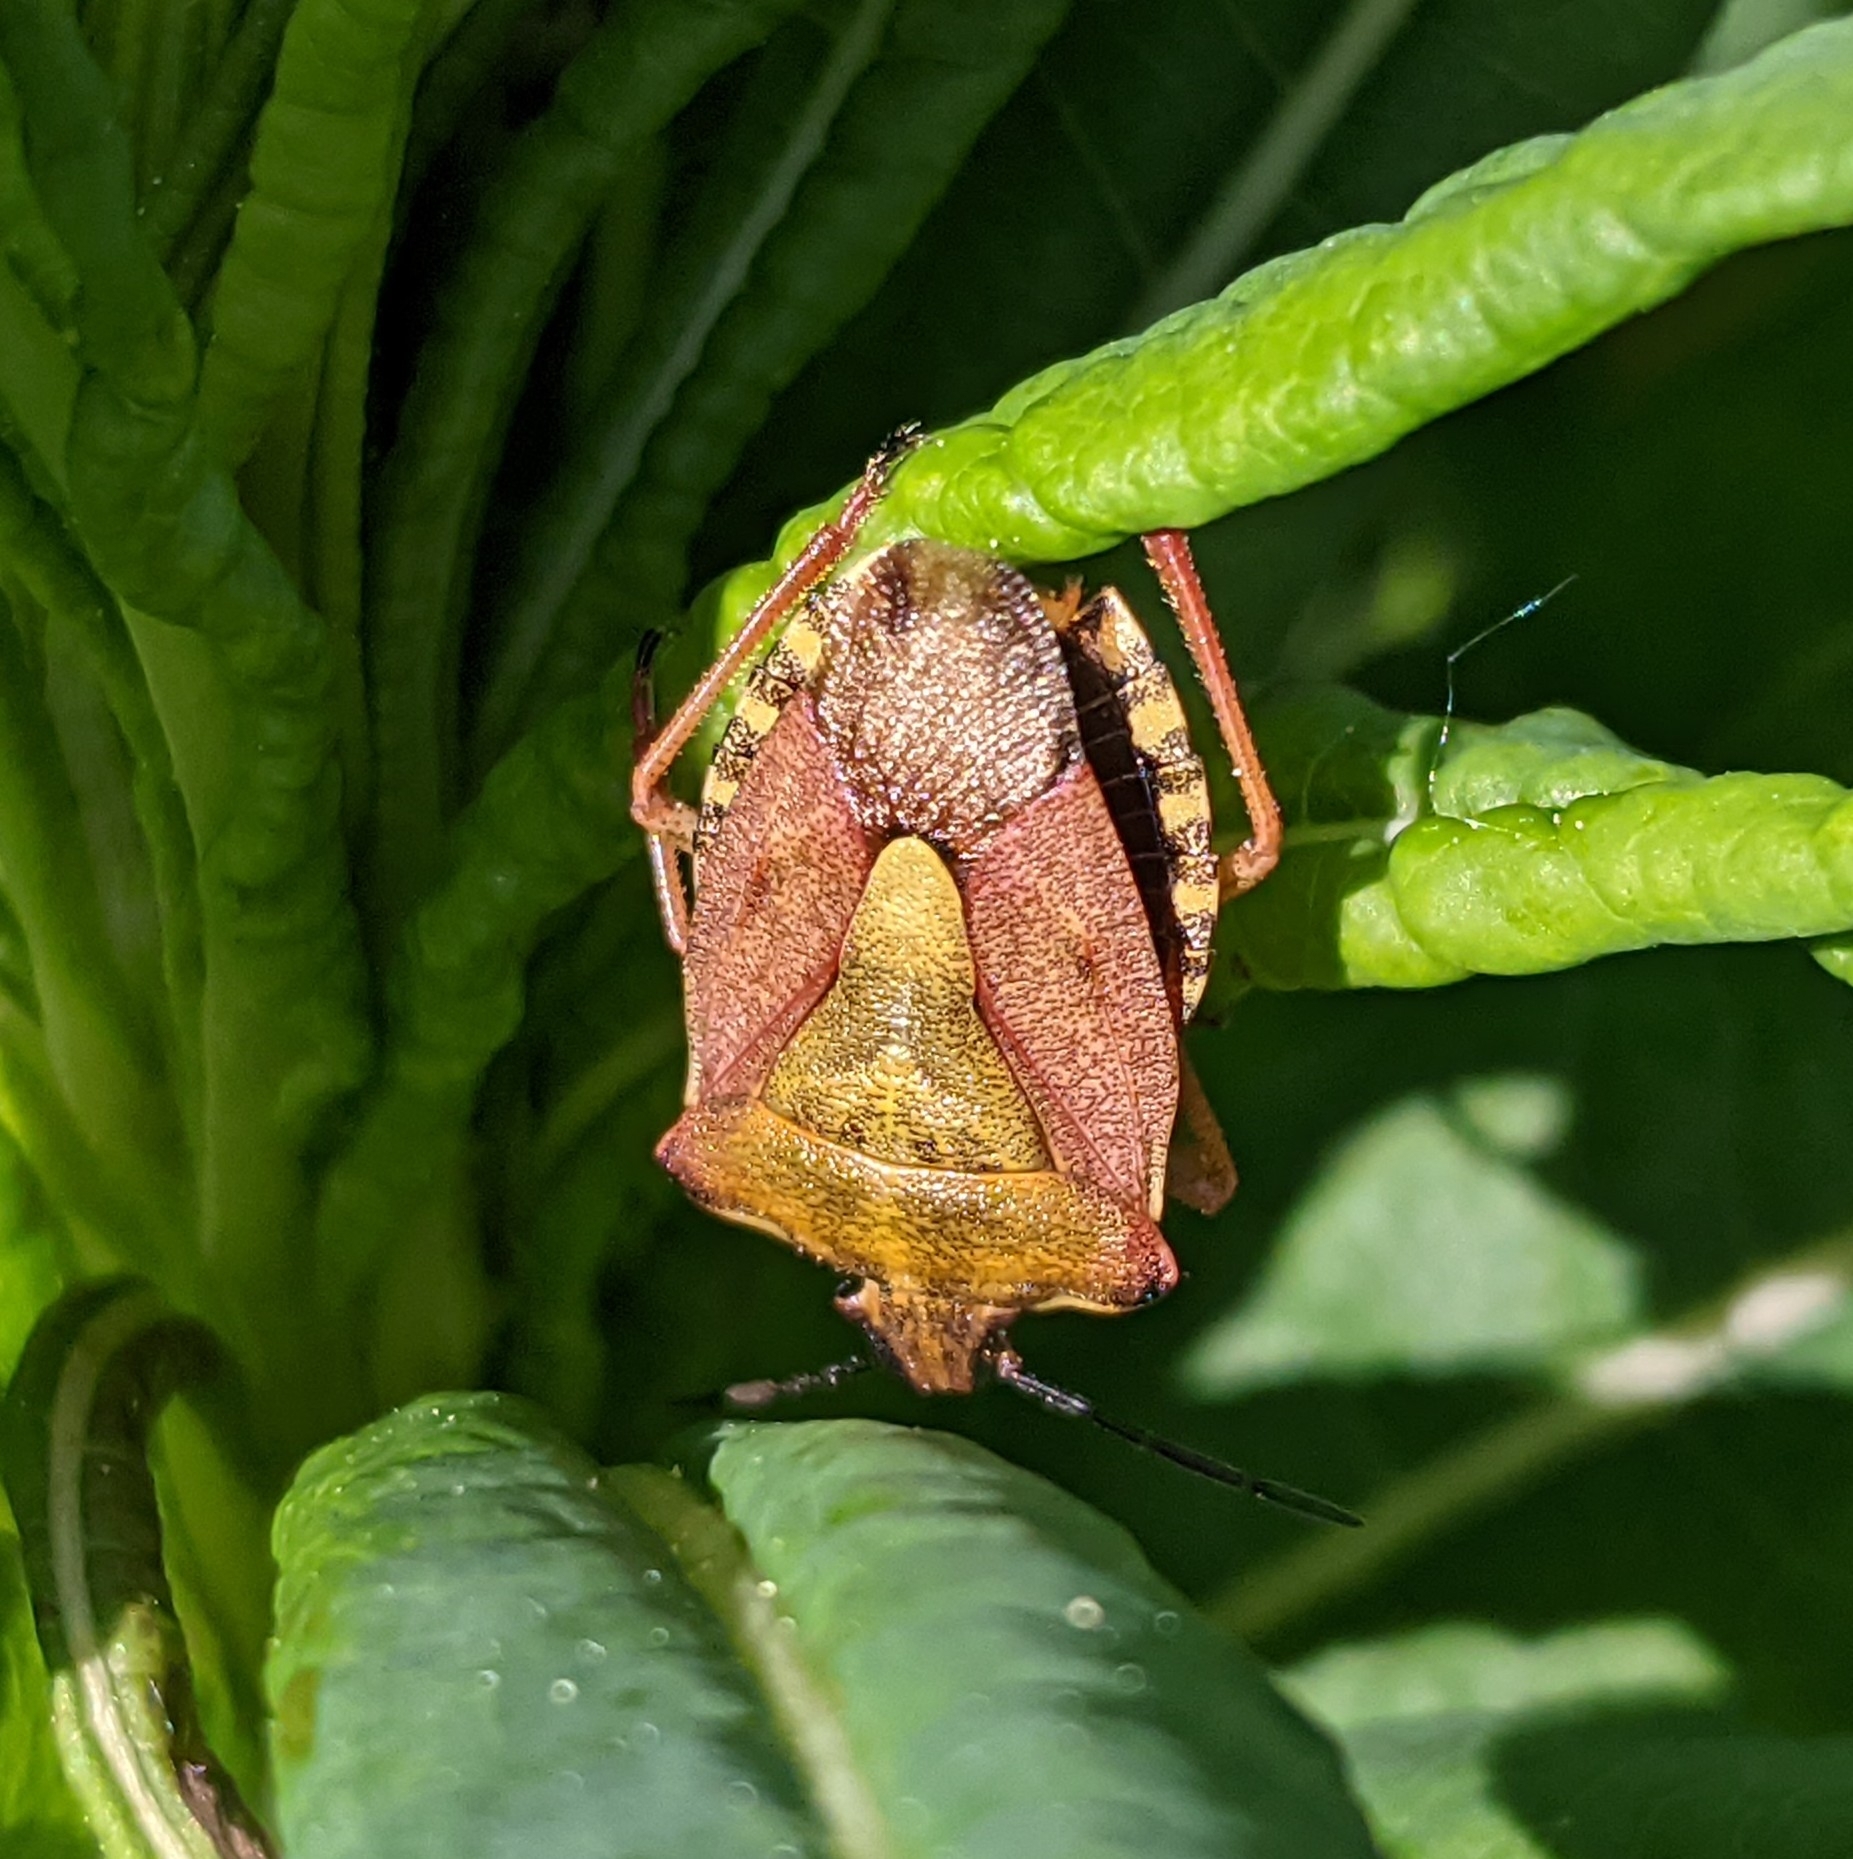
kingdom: Animalia
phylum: Arthropoda
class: Insecta
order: Hemiptera
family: Pentatomidae
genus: Carpocoris
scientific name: Carpocoris purpureipennis
